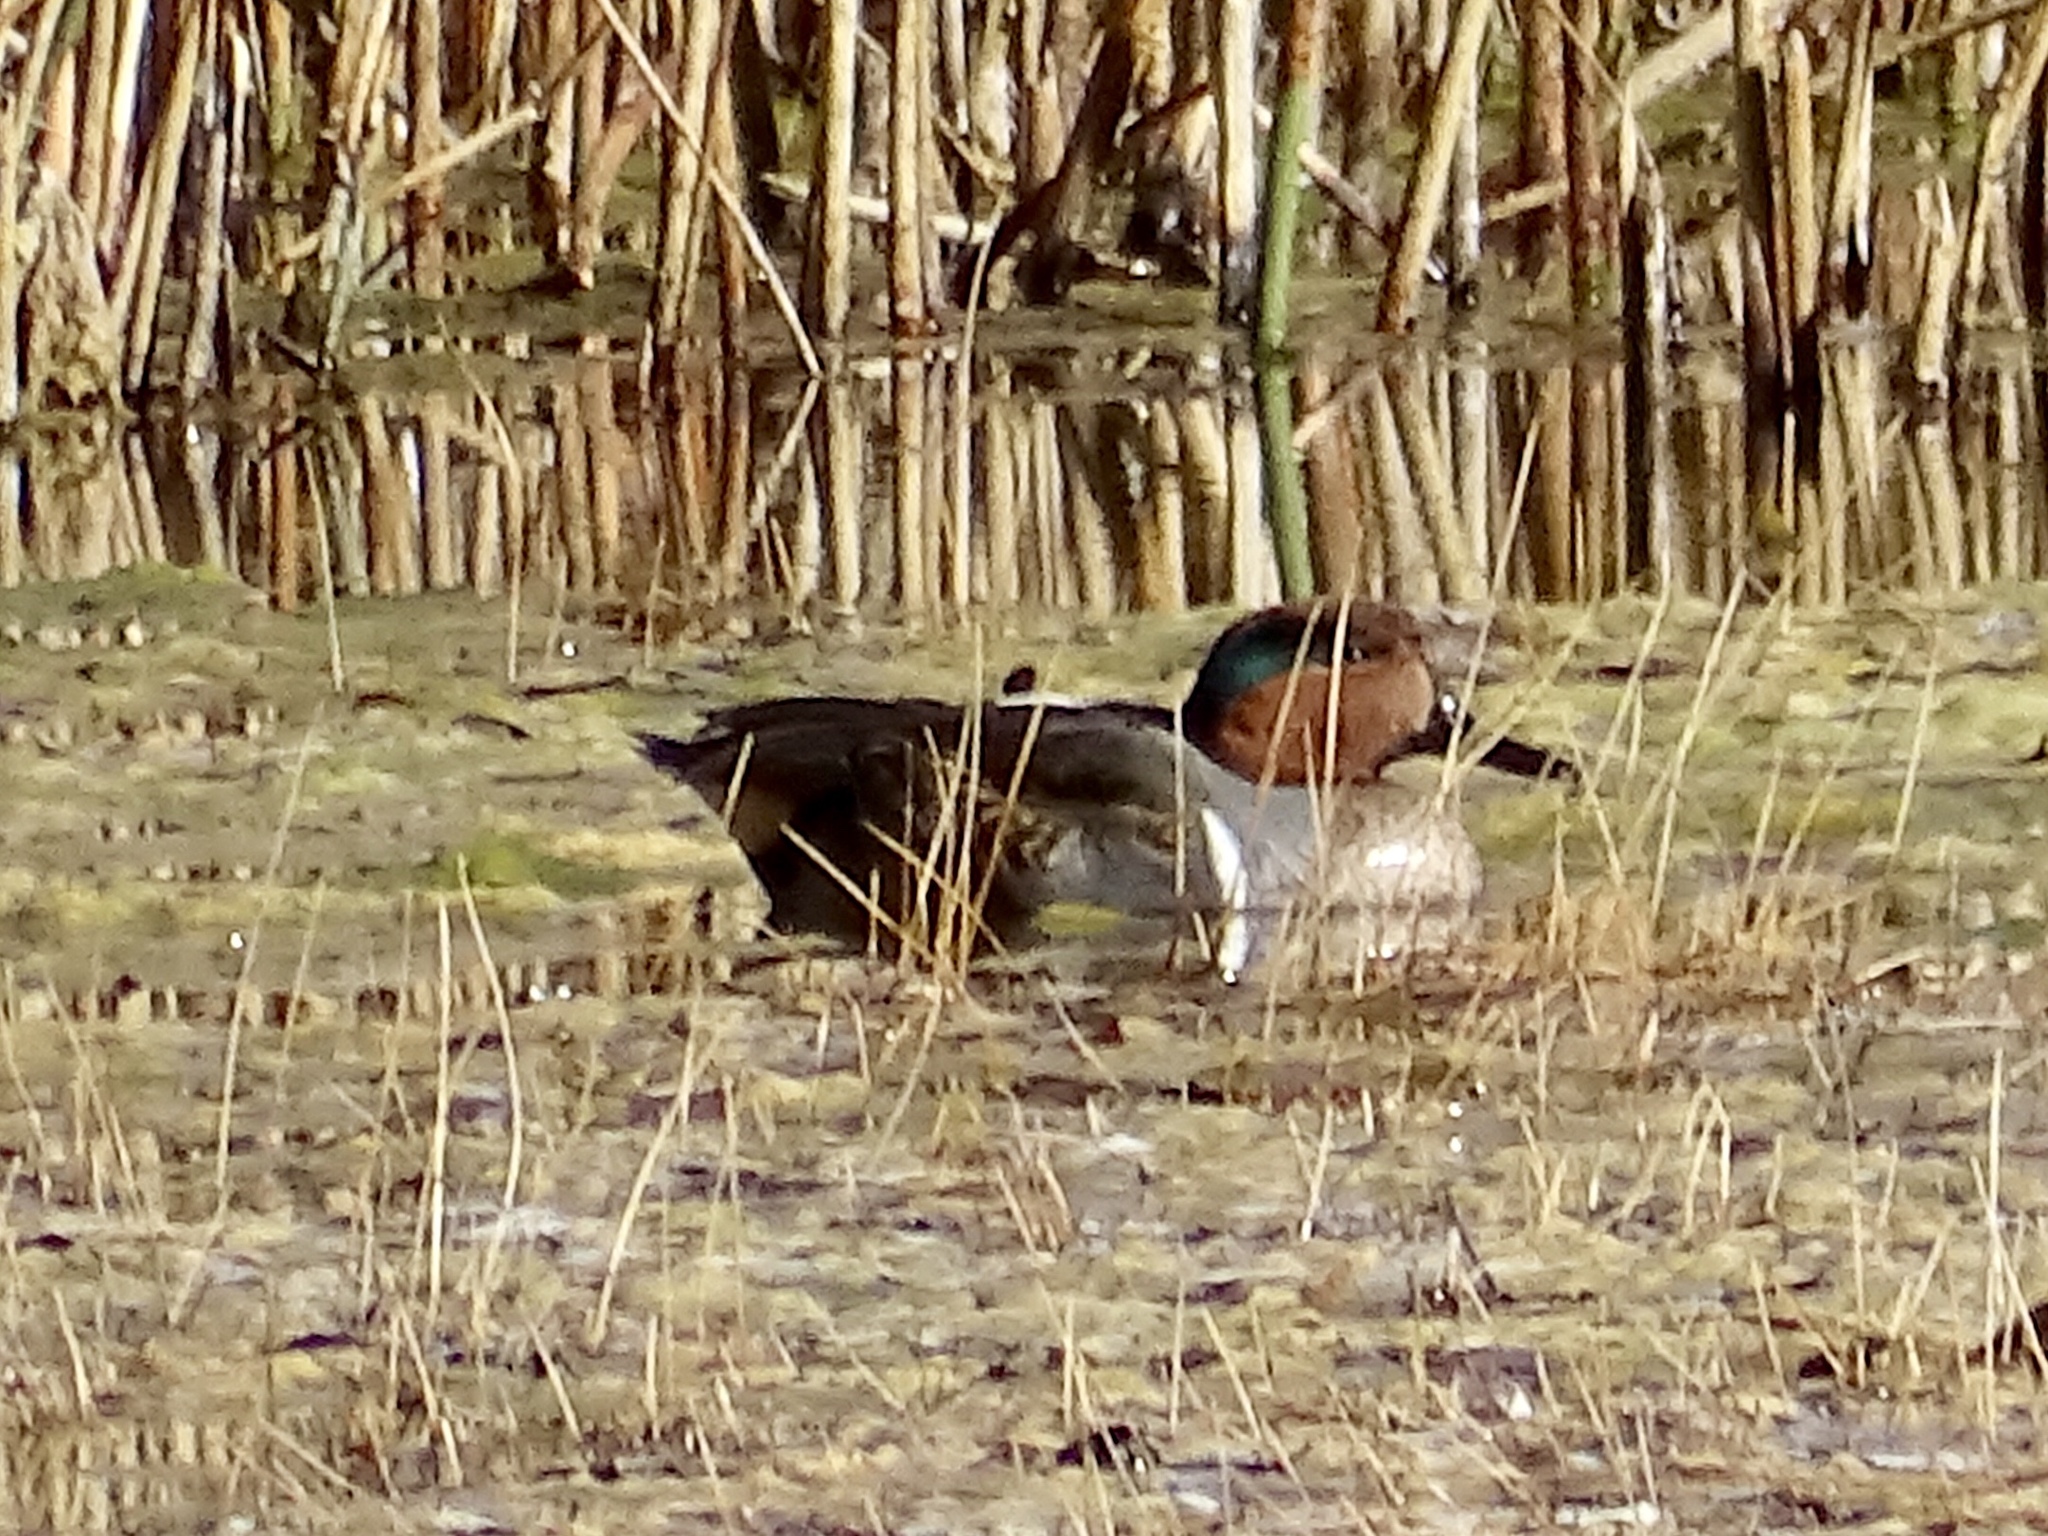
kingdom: Animalia
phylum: Chordata
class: Aves
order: Anseriformes
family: Anatidae
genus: Anas
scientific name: Anas crecca
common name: Eurasian teal
